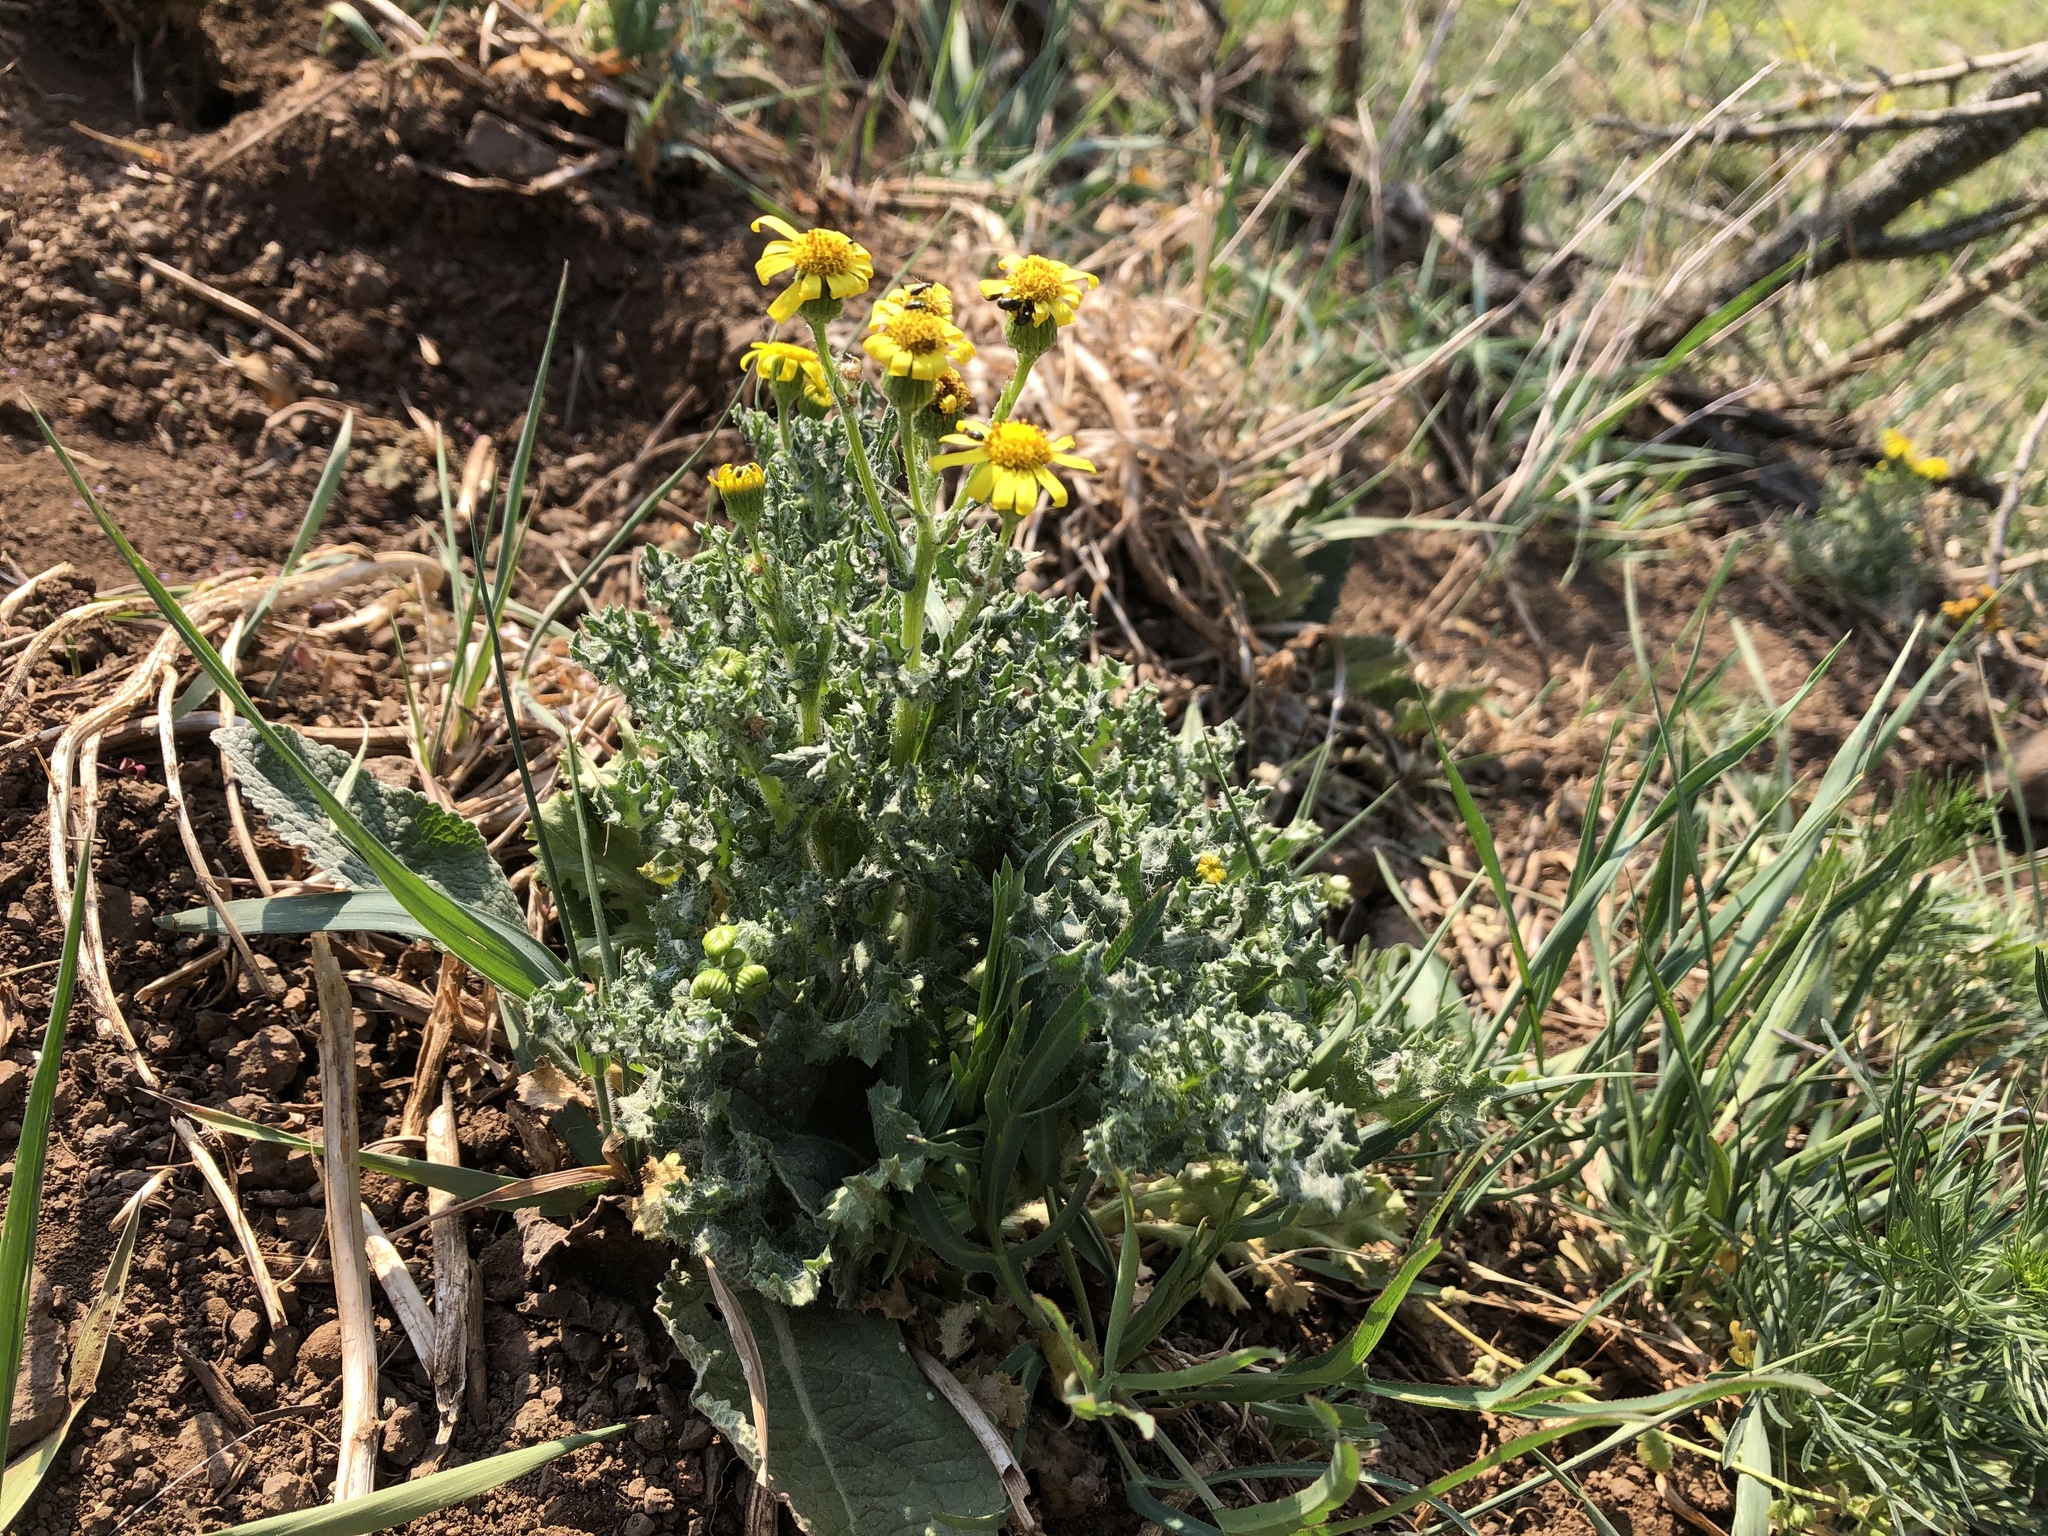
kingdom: Plantae
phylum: Tracheophyta
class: Magnoliopsida
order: Asterales
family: Asteraceae
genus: Senecio
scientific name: Senecio vernalis
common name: Eastern groundsel
